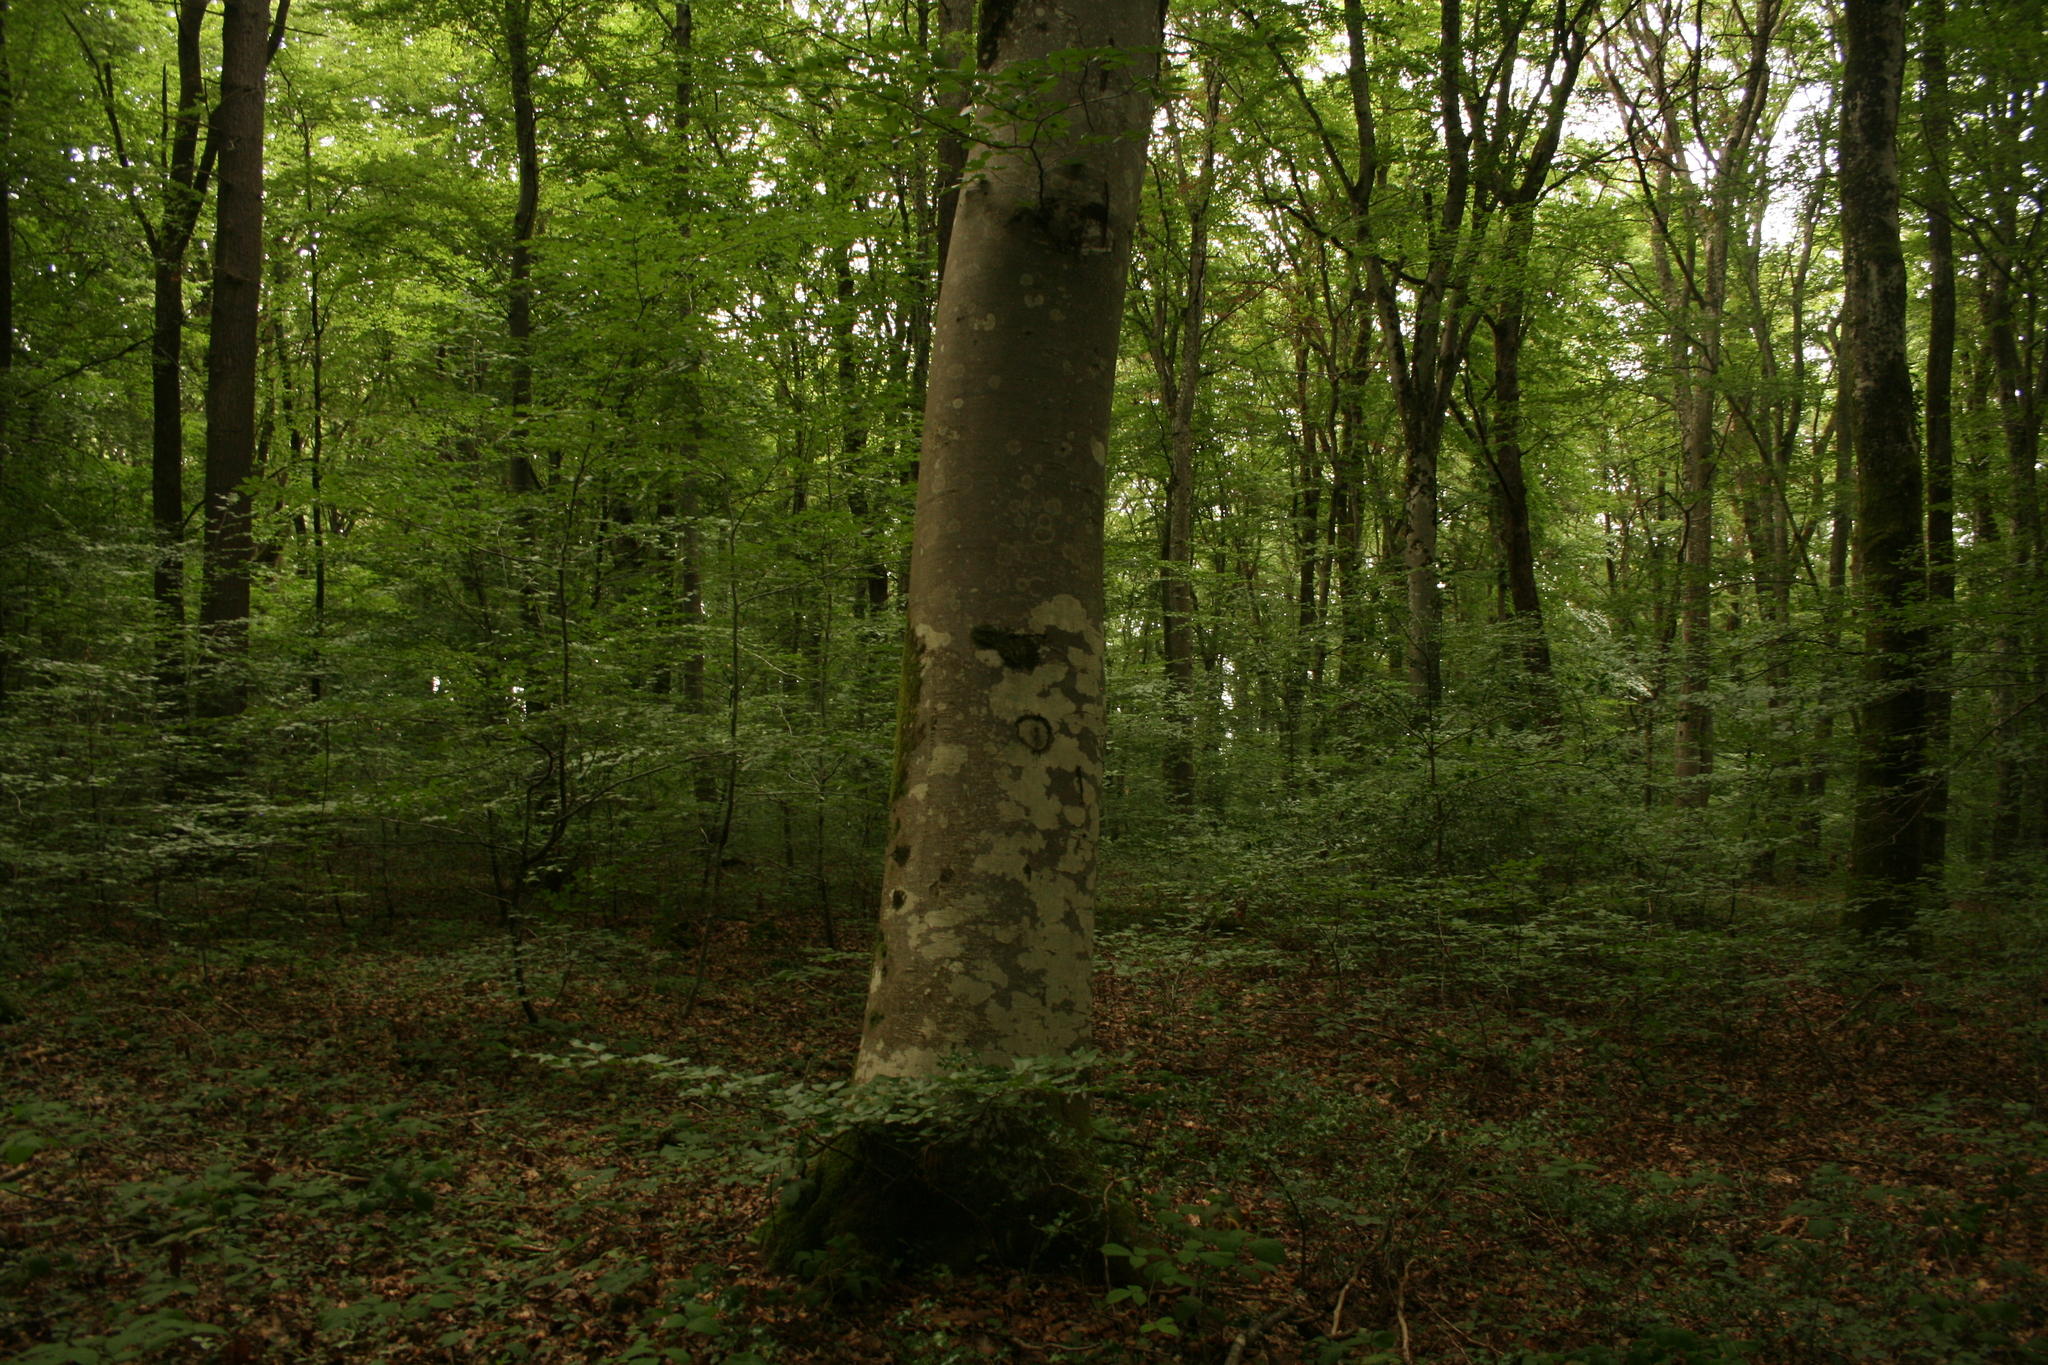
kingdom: Plantae
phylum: Tracheophyta
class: Magnoliopsida
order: Fagales
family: Fagaceae
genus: Fagus
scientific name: Fagus sylvatica
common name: Beech
